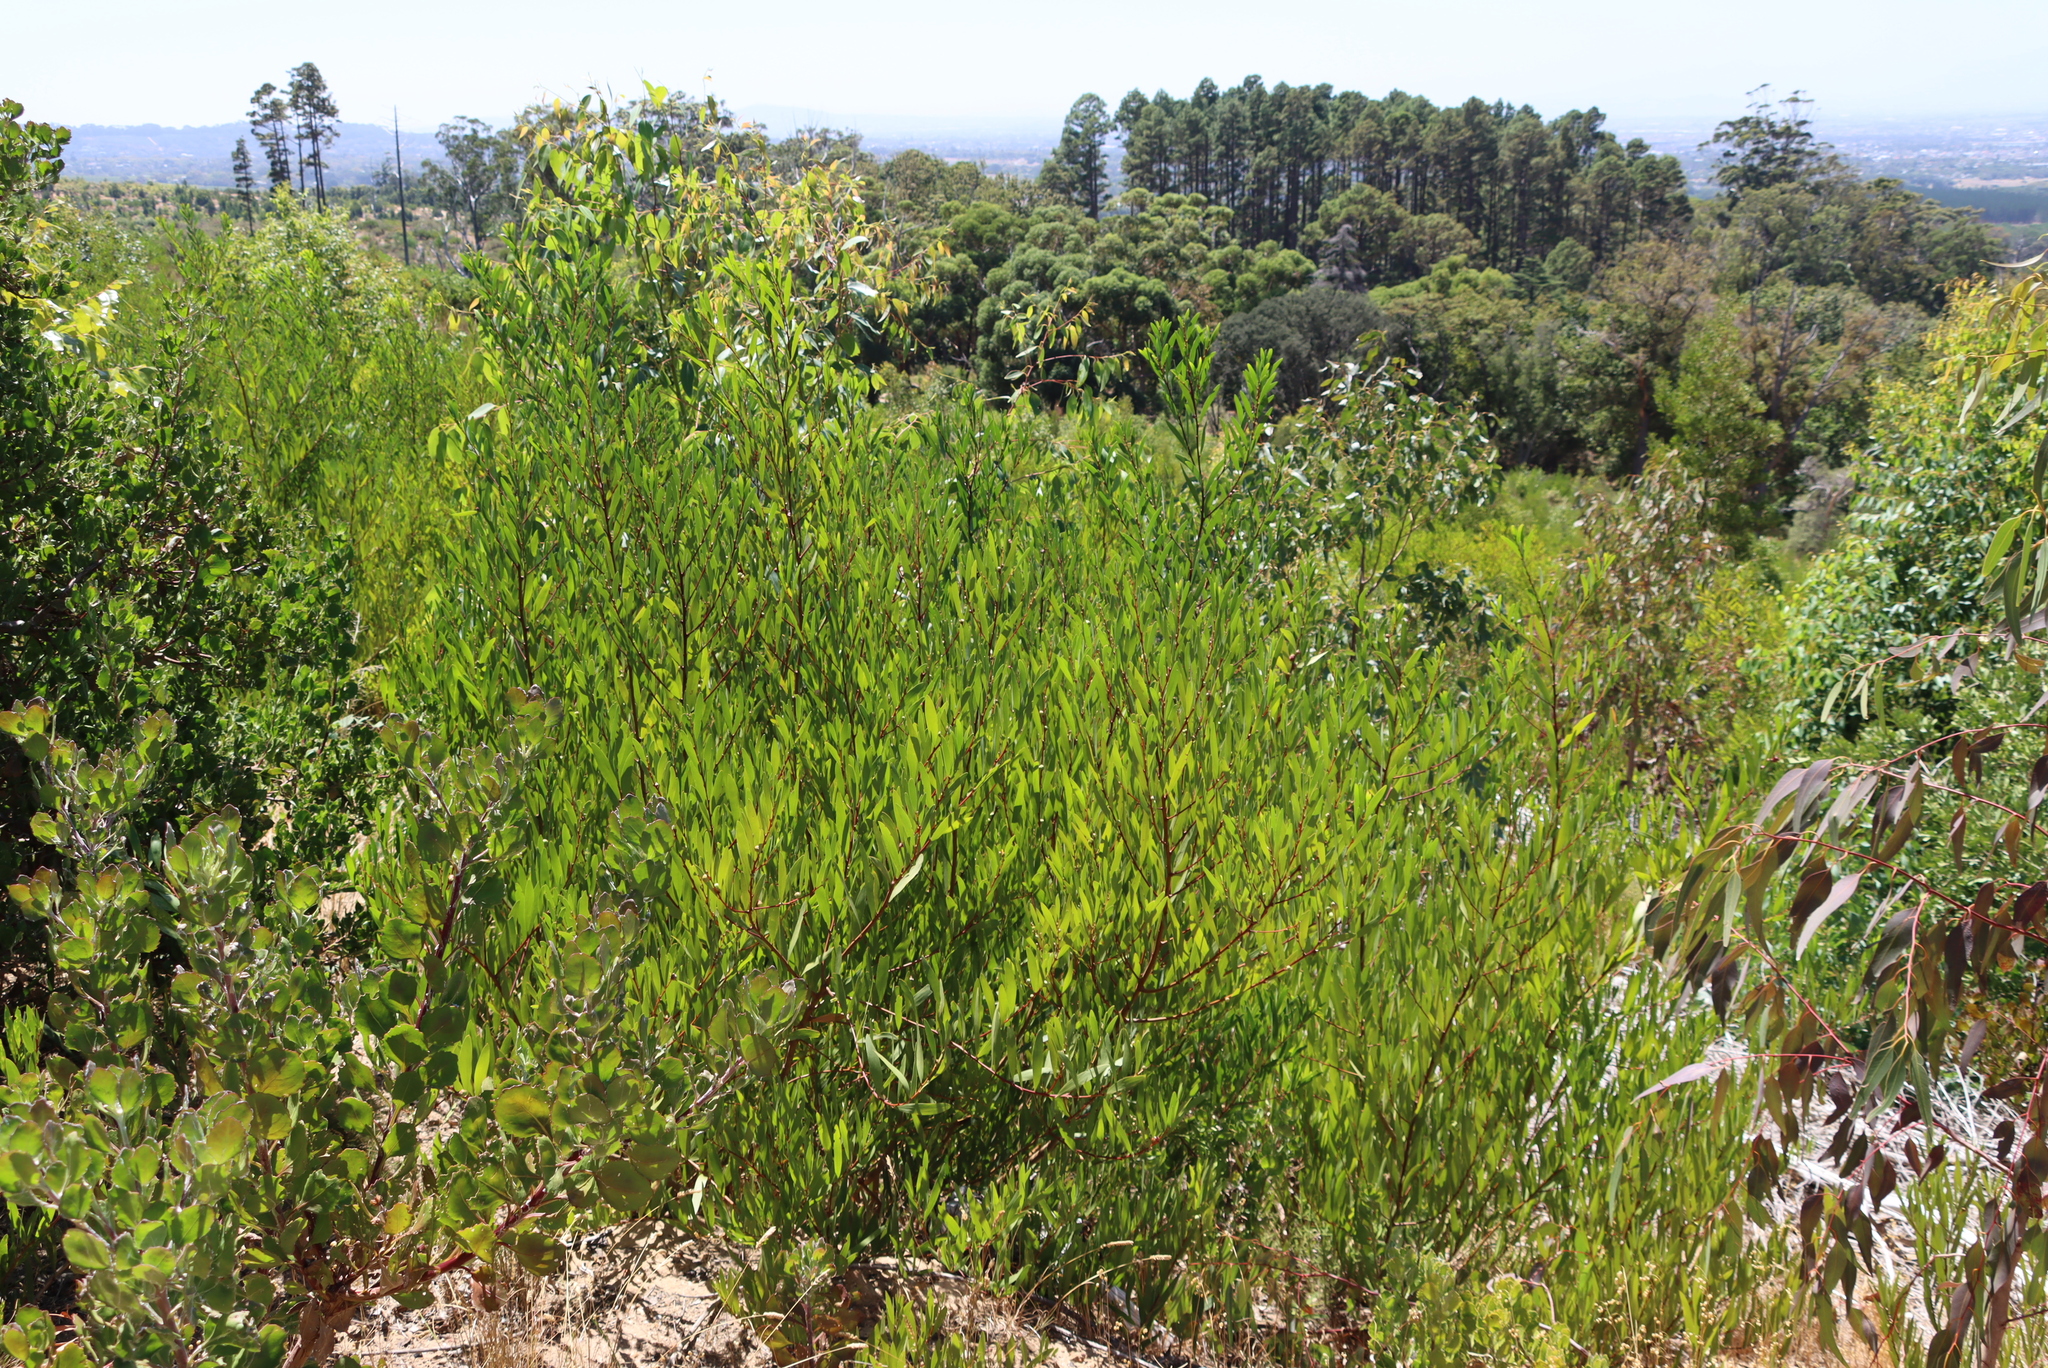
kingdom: Plantae
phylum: Tracheophyta
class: Magnoliopsida
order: Fabales
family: Fabaceae
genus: Acacia
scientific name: Acacia longifolia
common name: Sydney golden wattle
